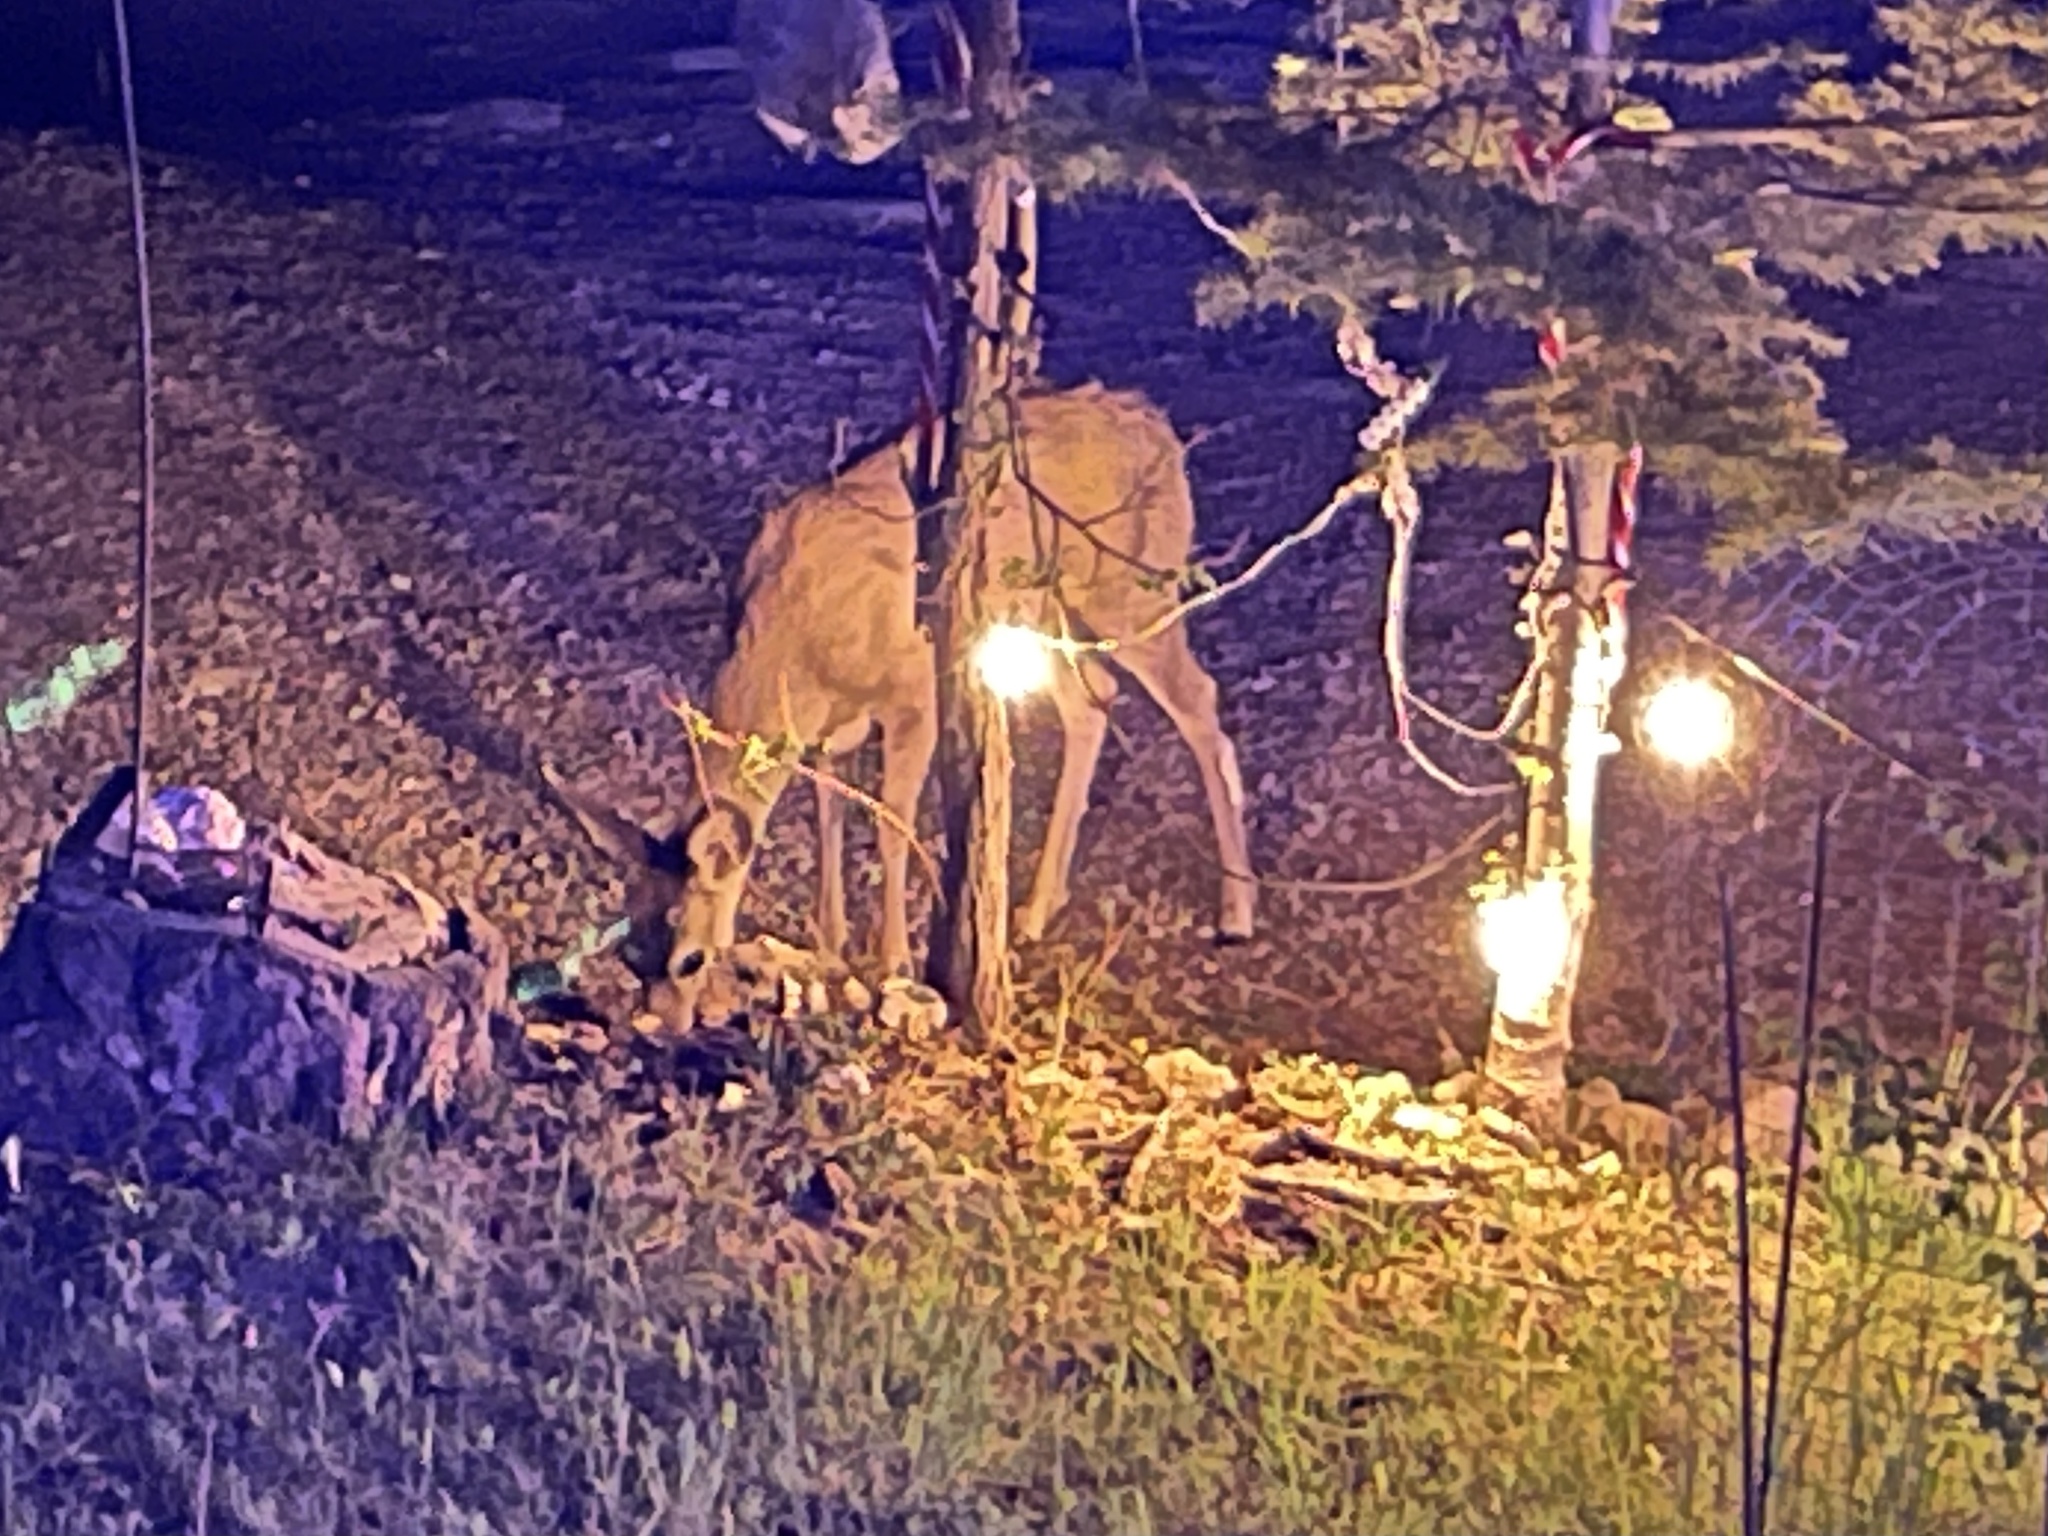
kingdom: Animalia
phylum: Chordata
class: Mammalia
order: Artiodactyla
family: Cervidae
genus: Odocoileus
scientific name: Odocoileus hemionus
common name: Mule deer
